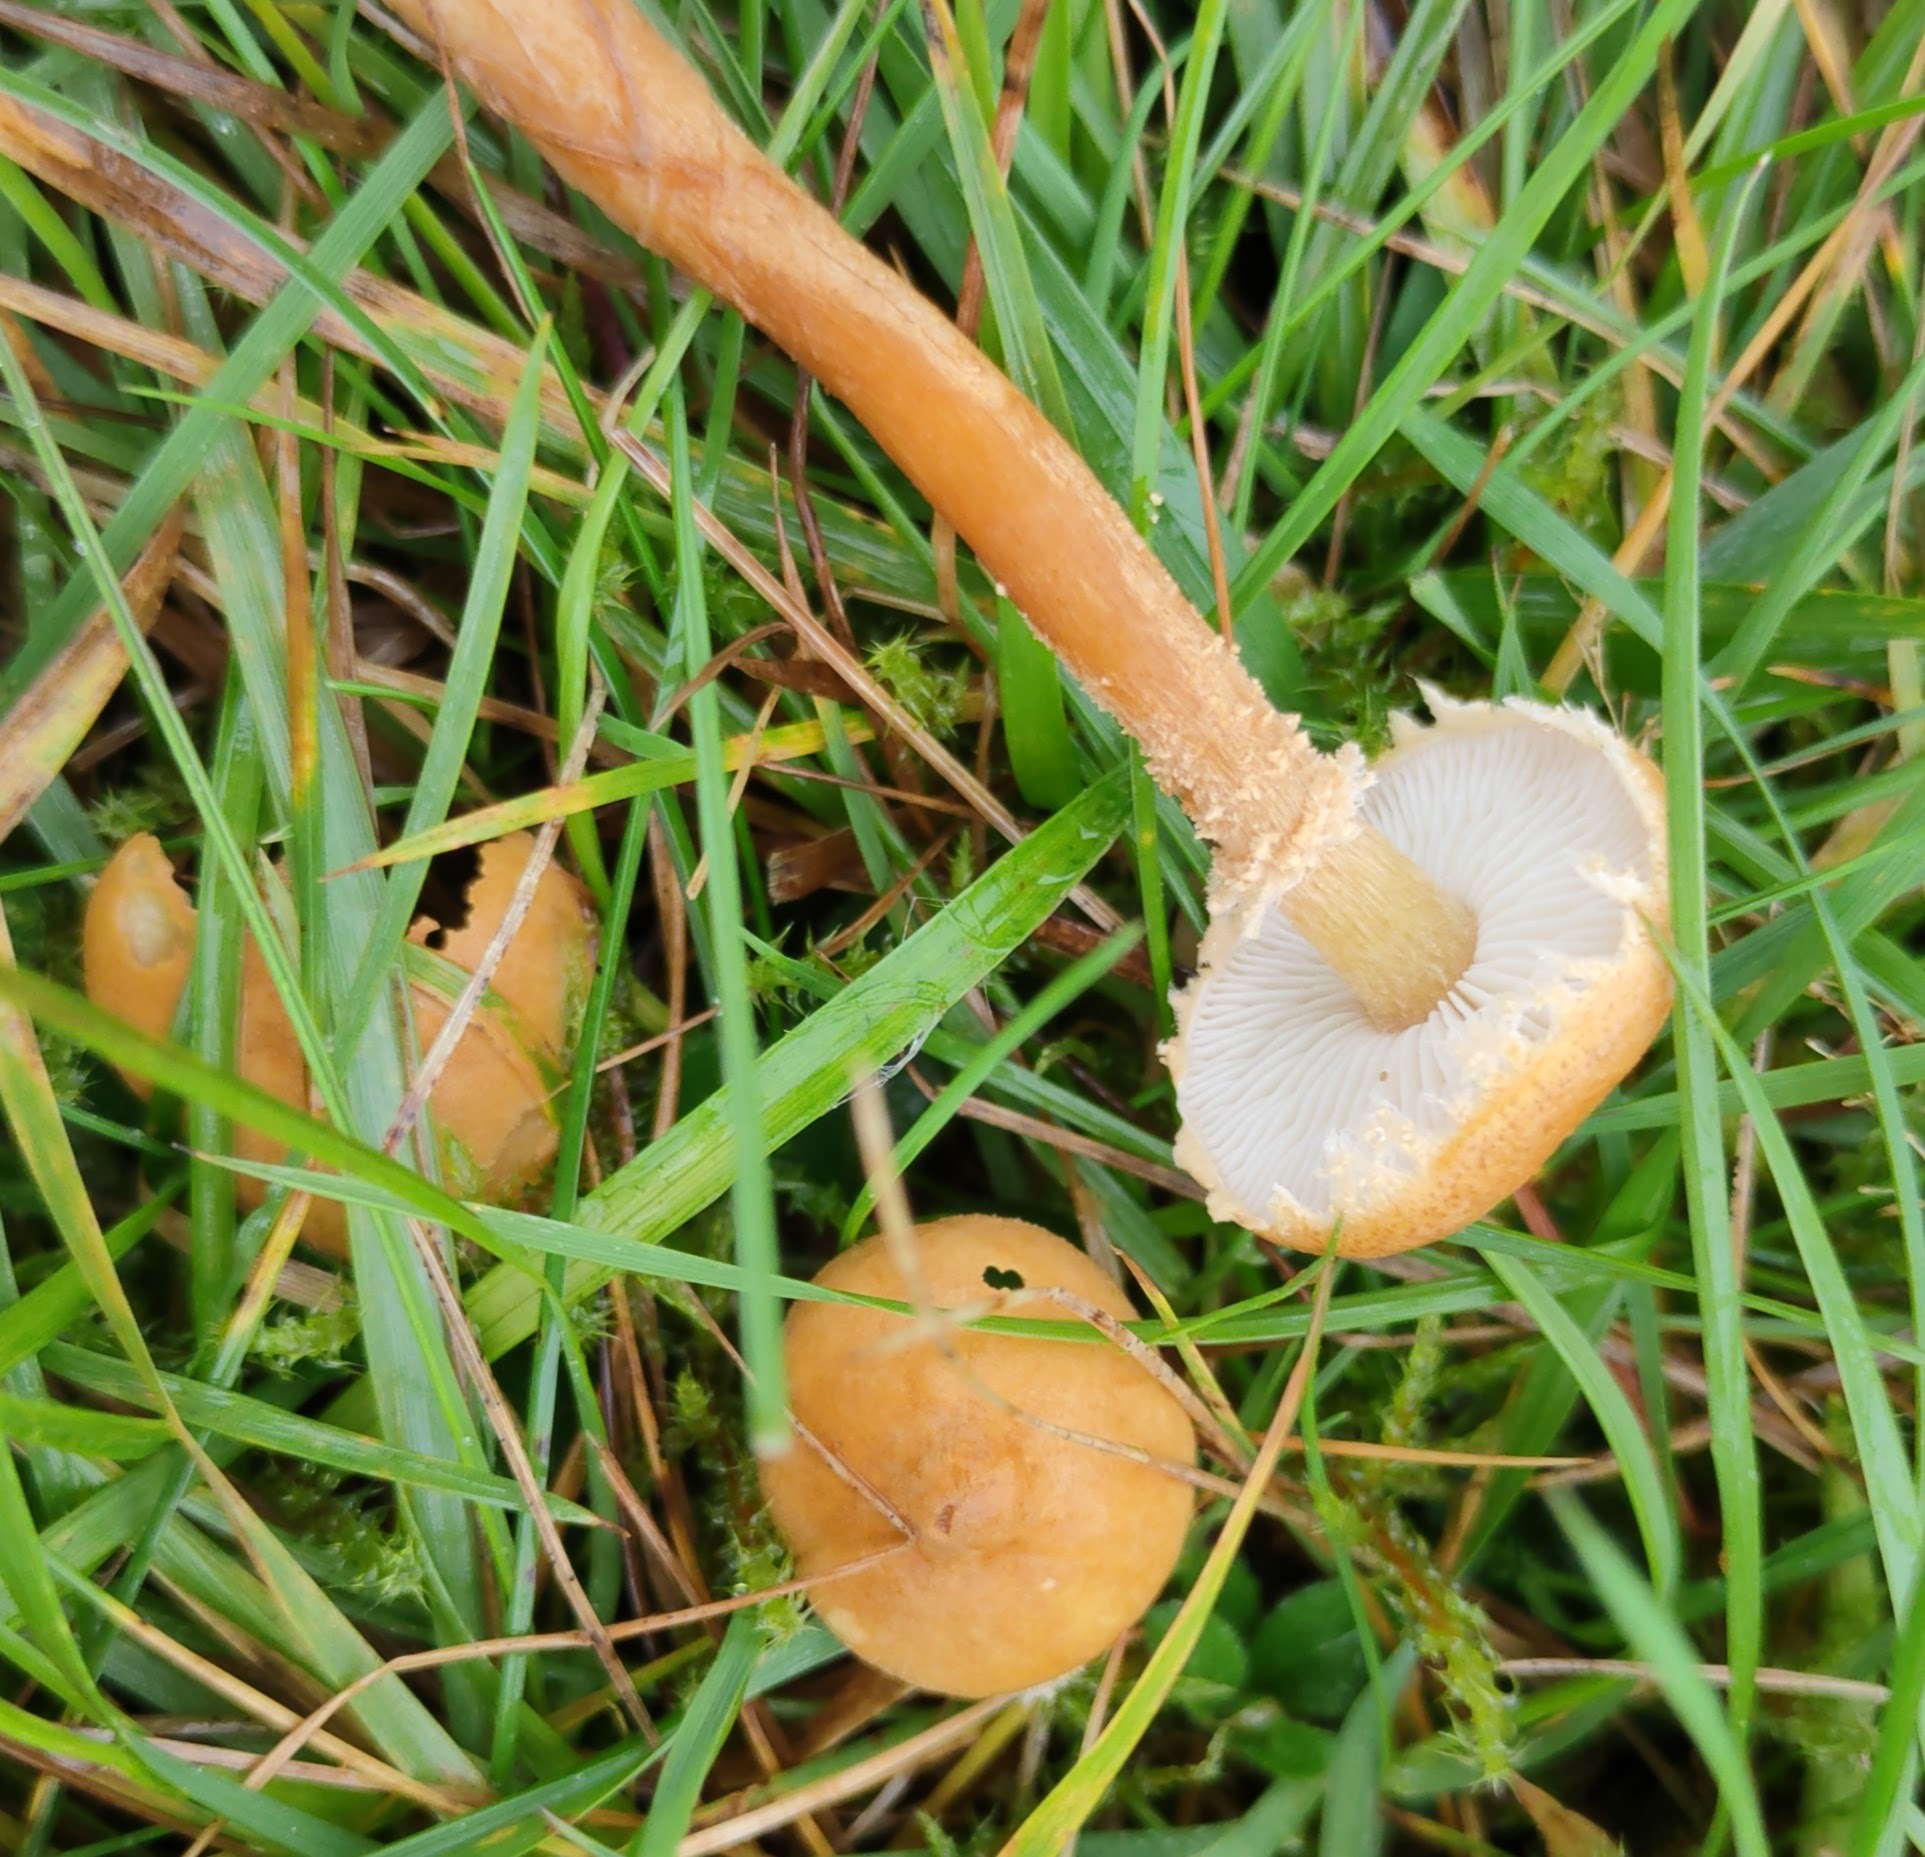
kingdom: Fungi
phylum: Basidiomycota
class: Agaricomycetes
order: Agaricales
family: Tricholomataceae
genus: Cystoderma
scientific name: Cystoderma amianthinum
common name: Earthy powdercap
